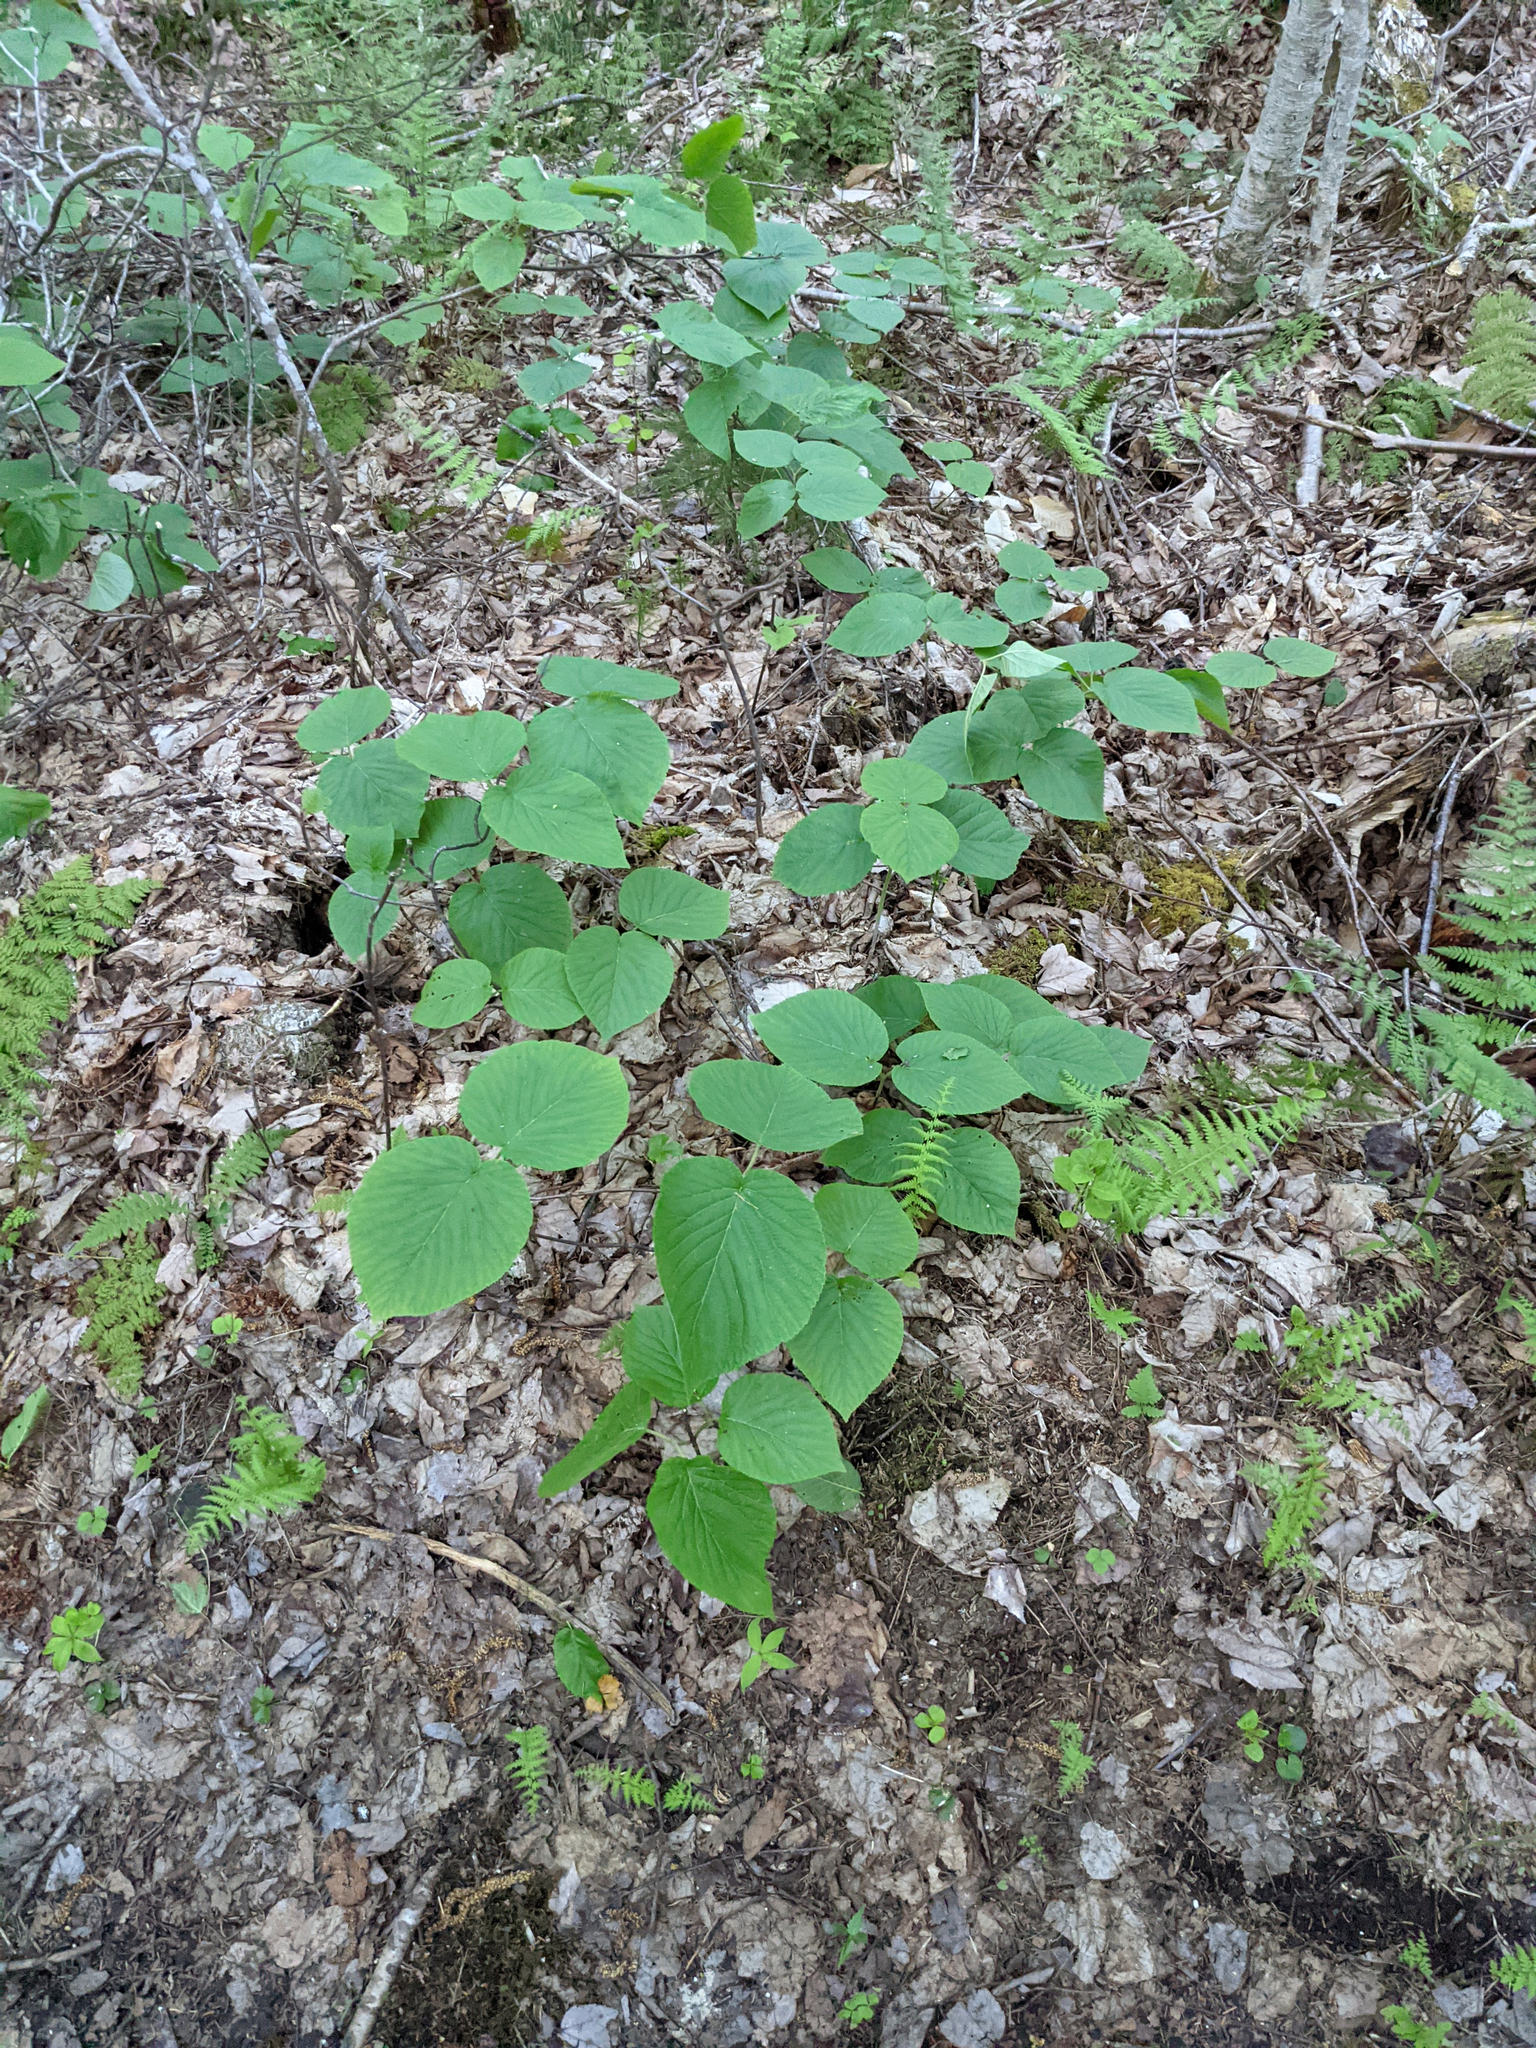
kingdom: Plantae
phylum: Tracheophyta
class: Magnoliopsida
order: Dipsacales
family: Viburnaceae
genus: Viburnum
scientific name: Viburnum lantanoides
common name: Hobblebush
